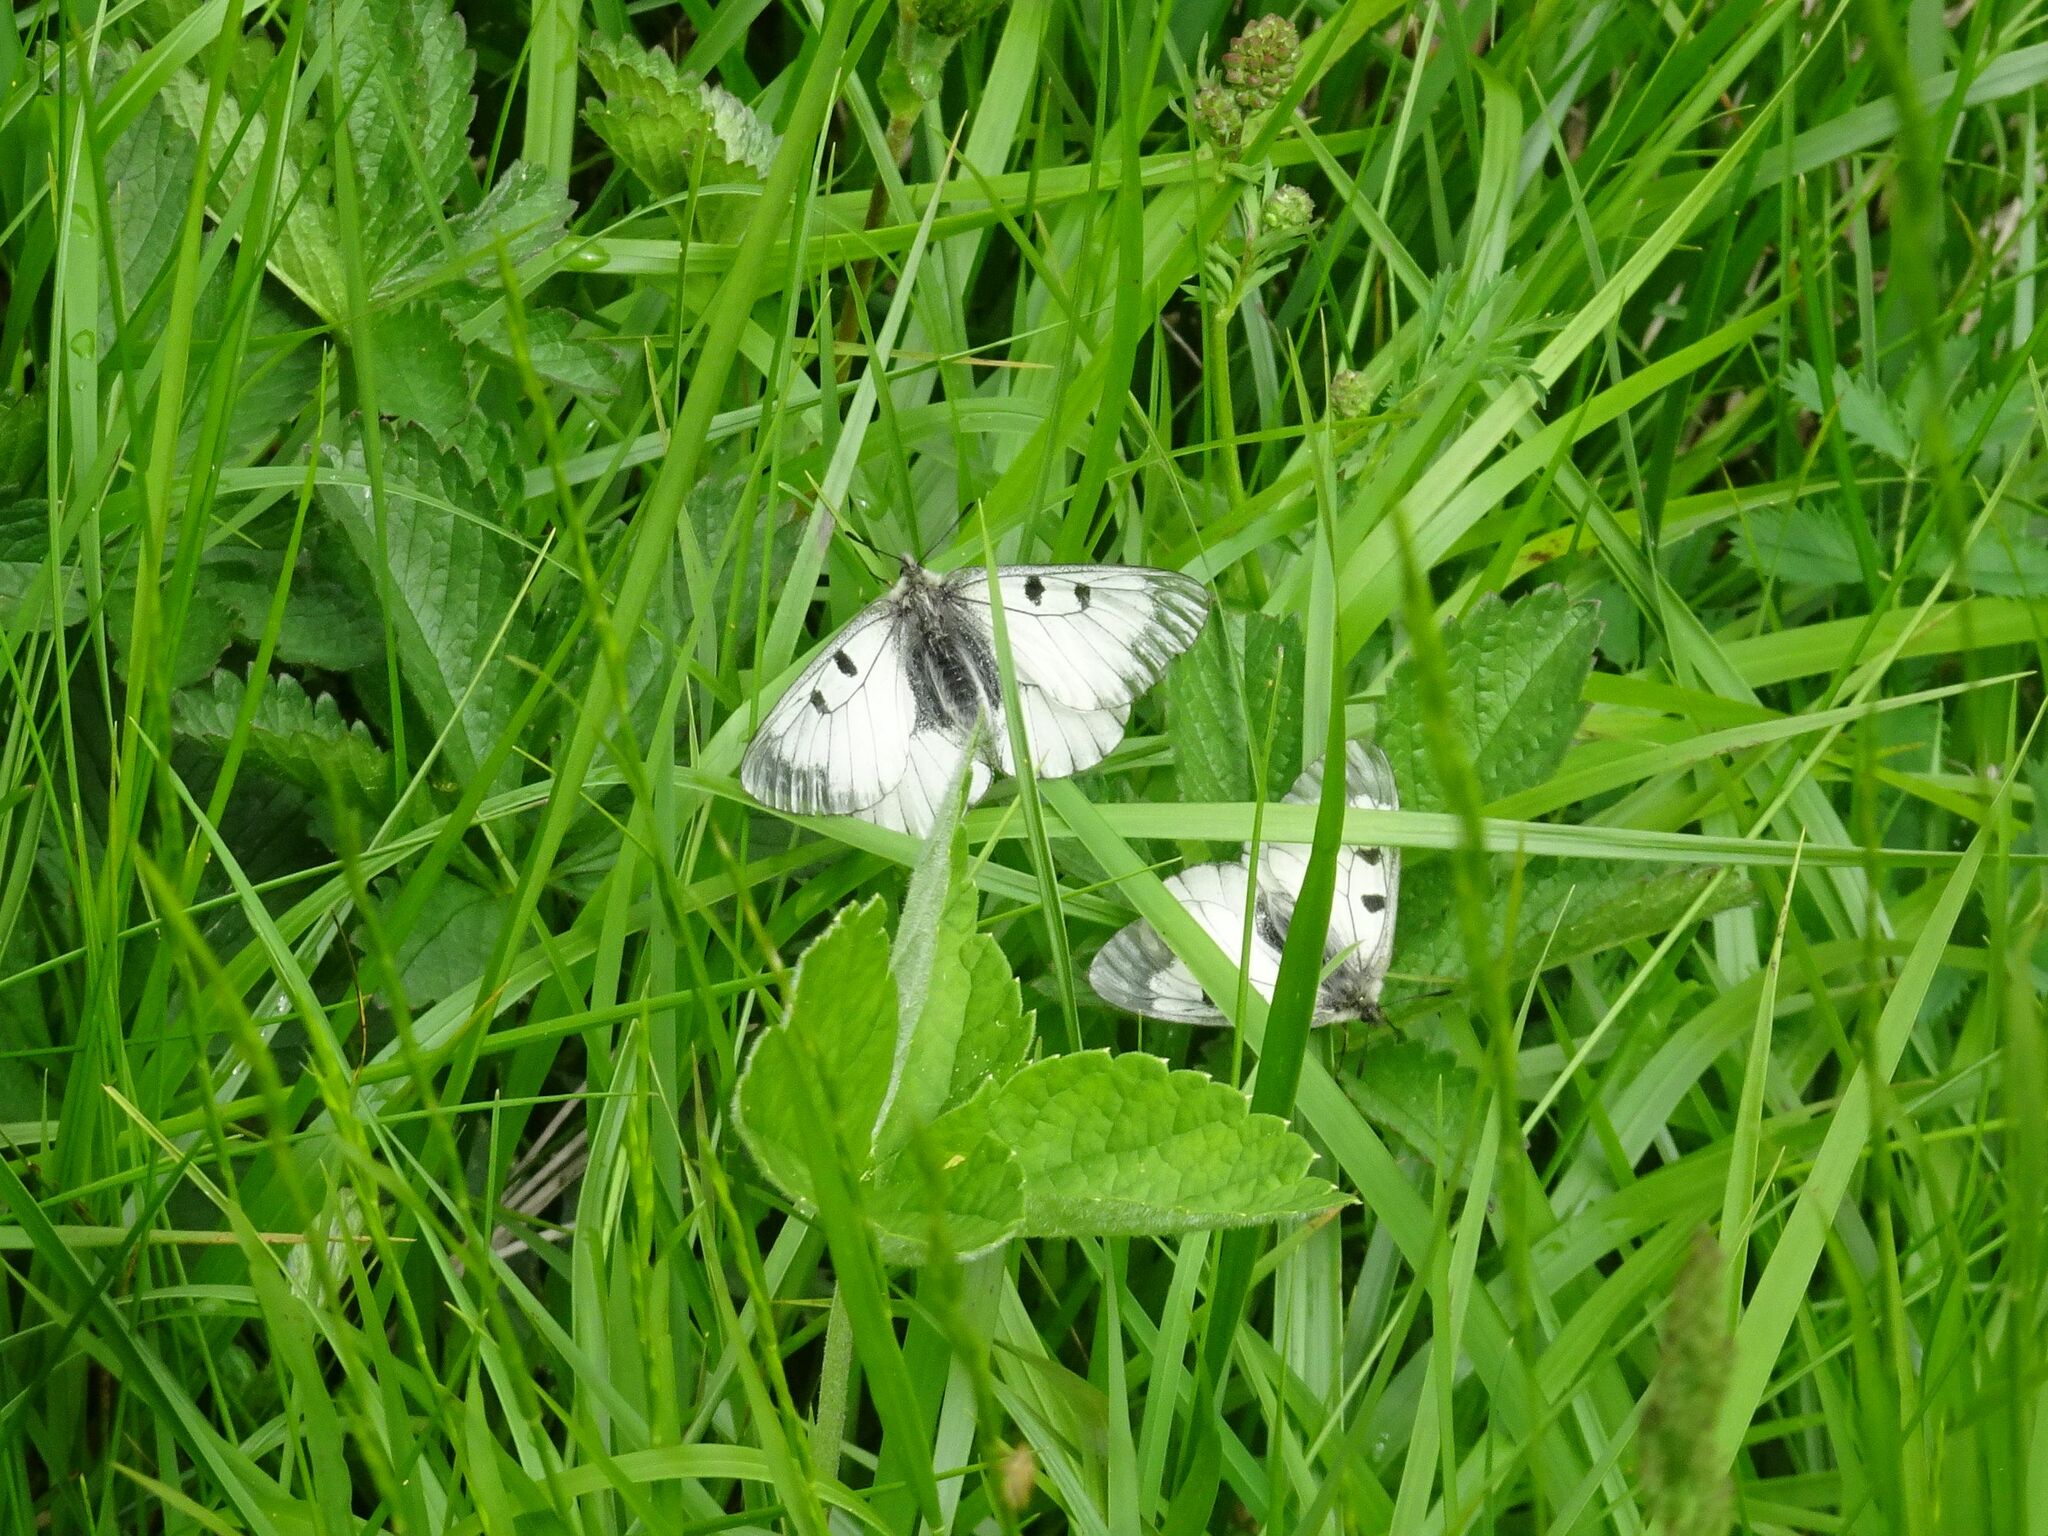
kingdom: Animalia
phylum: Arthropoda
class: Insecta
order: Lepidoptera
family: Papilionidae
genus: Parnassius
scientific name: Parnassius mnemosyne
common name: Clouded apollo
